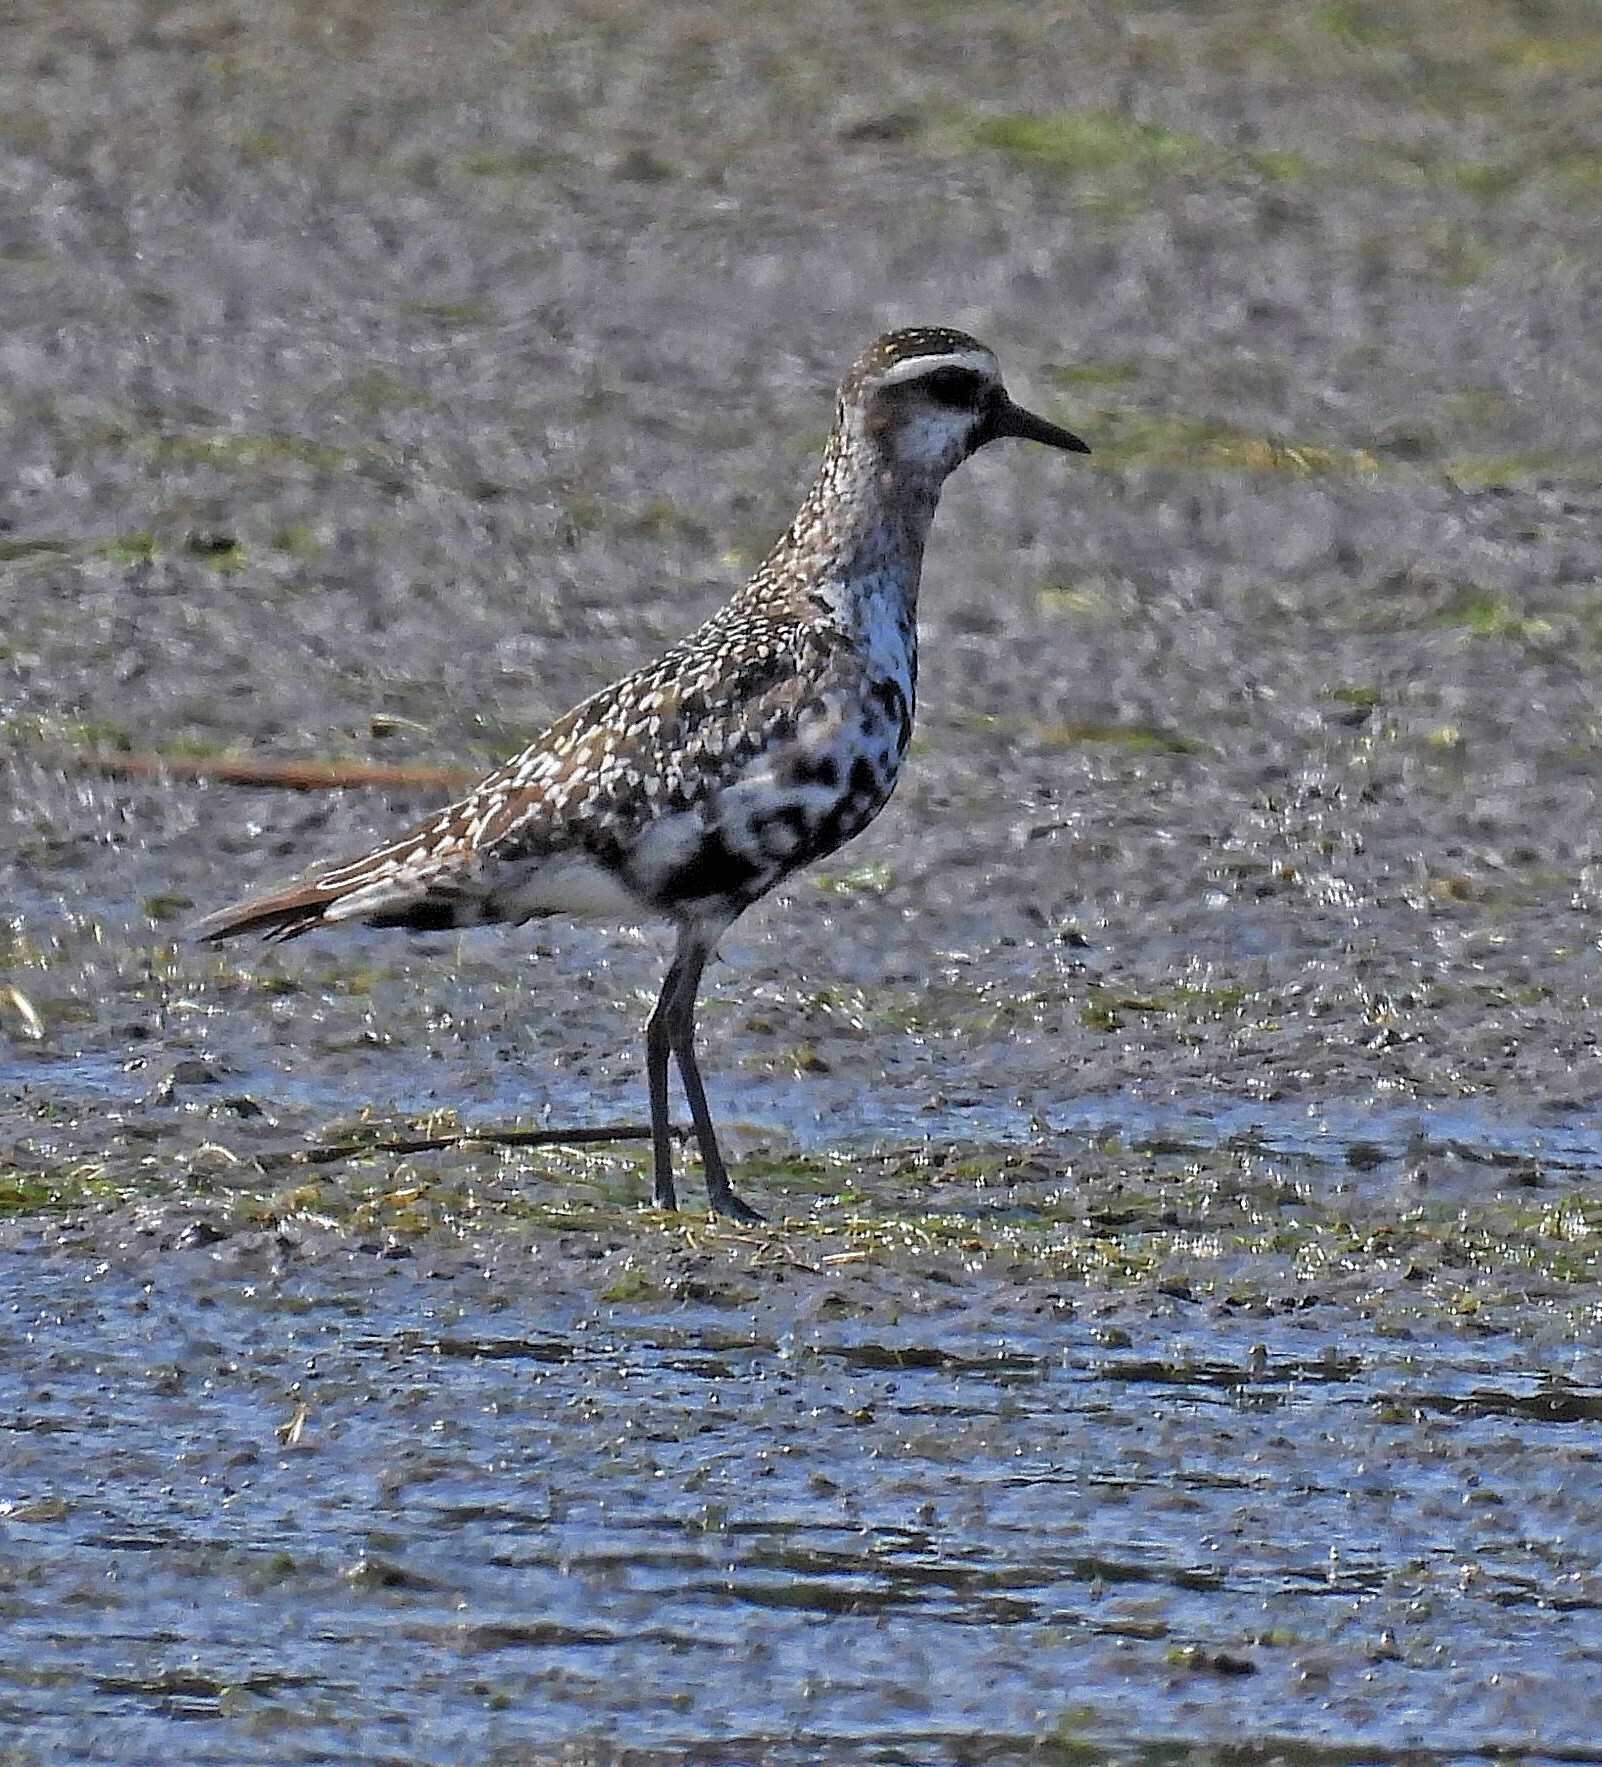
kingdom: Animalia
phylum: Chordata
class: Aves
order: Charadriiformes
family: Charadriidae
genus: Pluvialis
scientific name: Pluvialis dominica
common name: American golden plover
